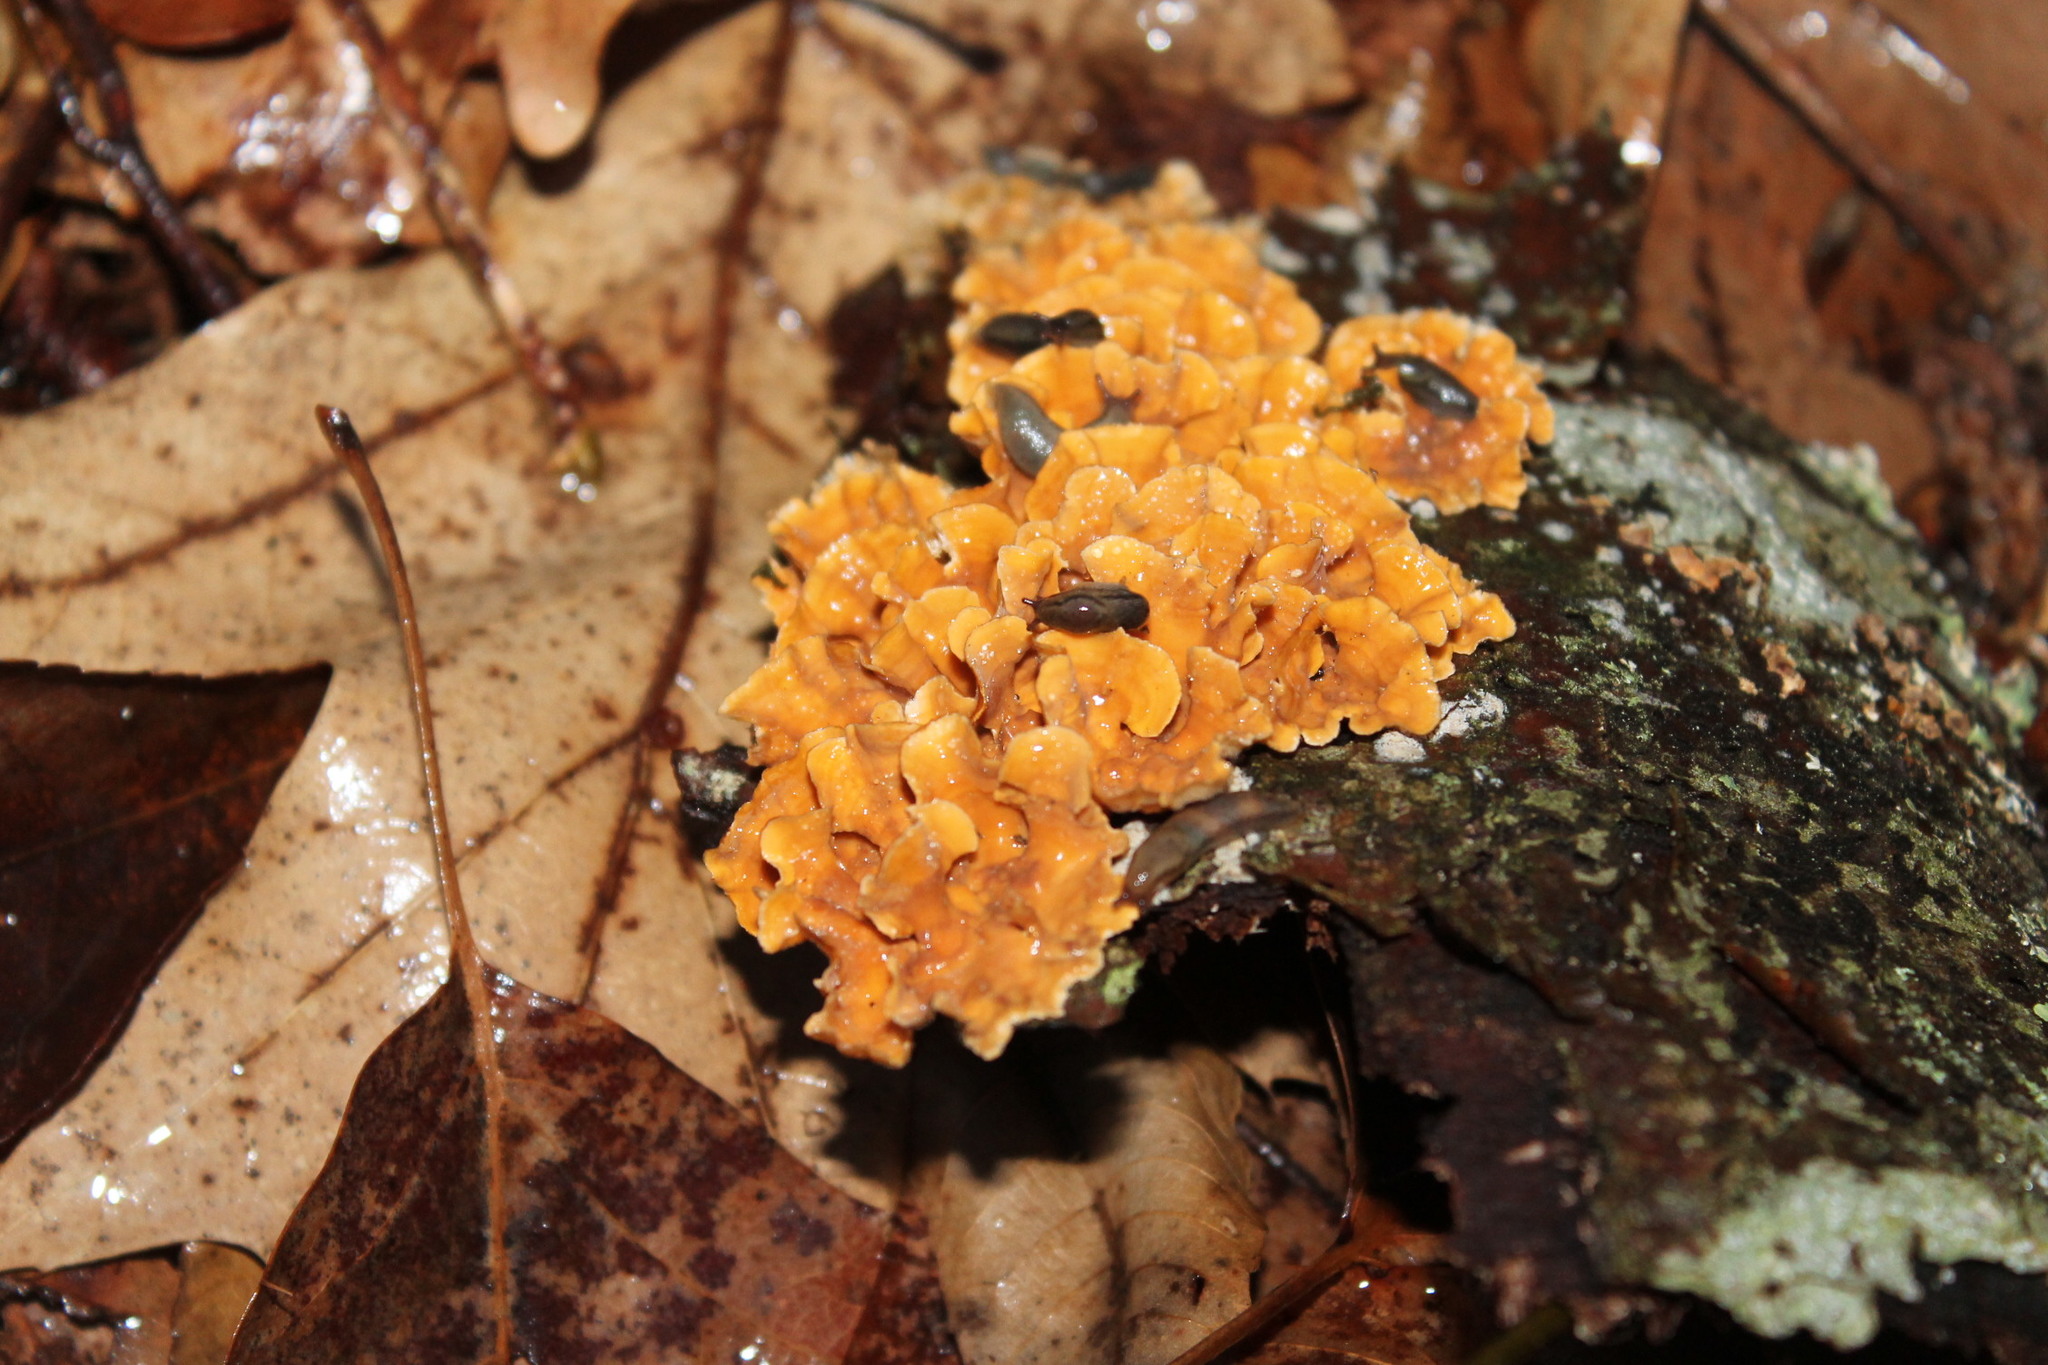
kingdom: Fungi
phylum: Basidiomycota
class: Agaricomycetes
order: Russulales
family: Stereaceae
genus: Stereum
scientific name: Stereum complicatum
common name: Crowded parchment
